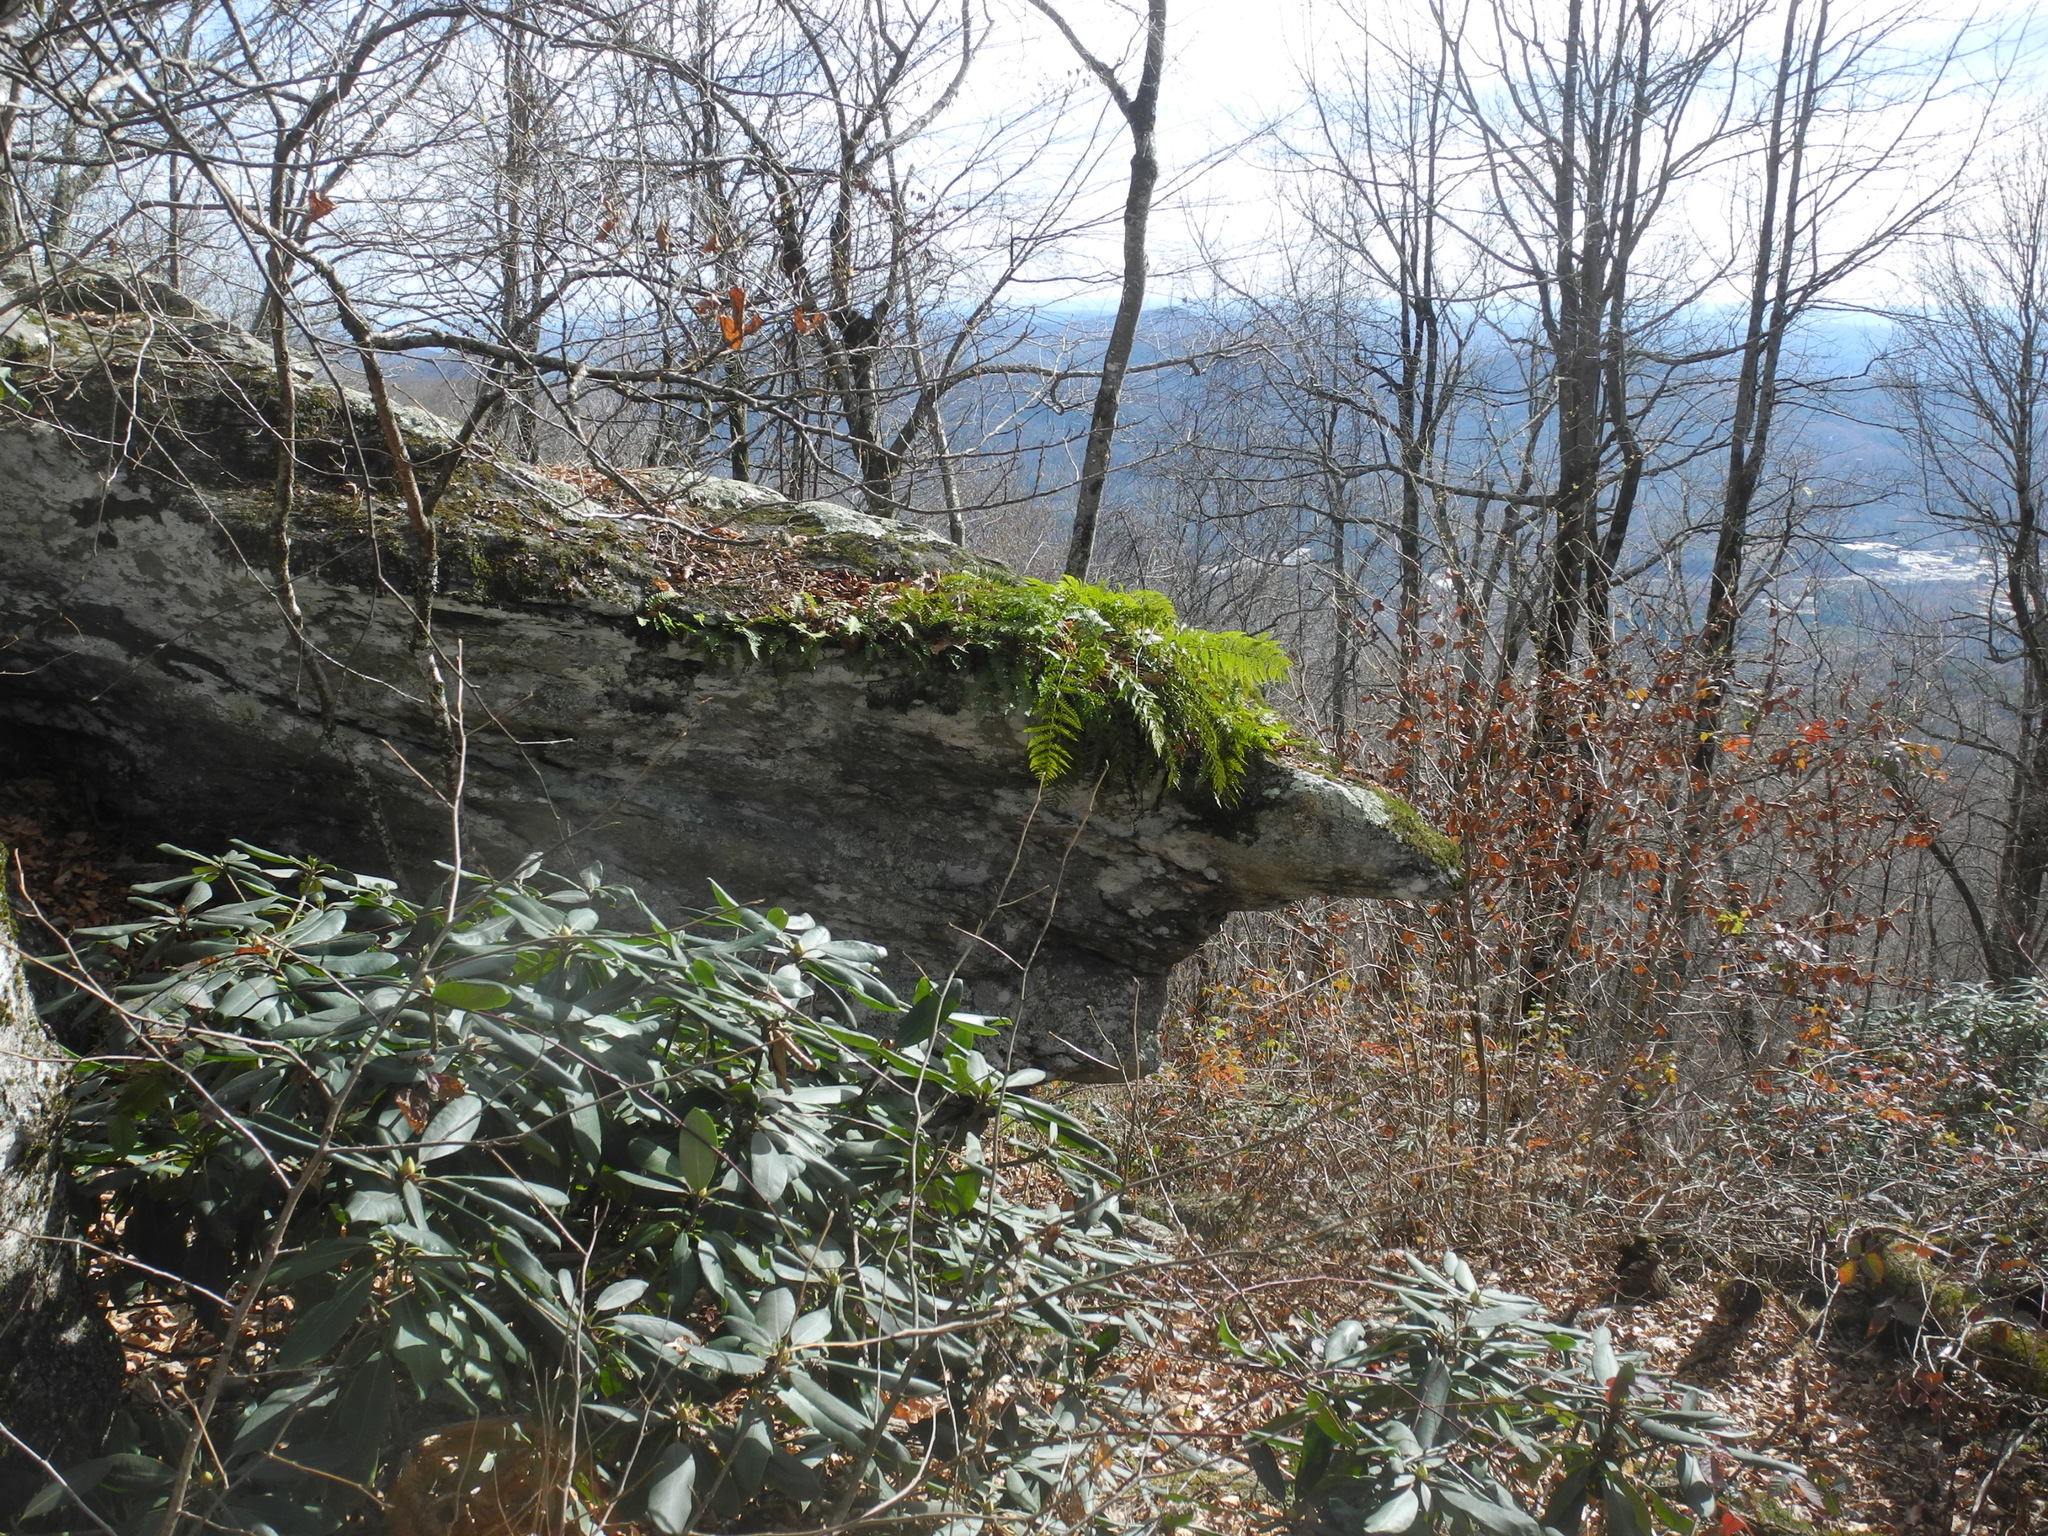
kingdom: Plantae
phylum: Tracheophyta
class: Polypodiopsida
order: Polypodiales
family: Dryopteridaceae
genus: Dryopteris
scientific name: Dryopteris marginalis
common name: Marginal wood fern
